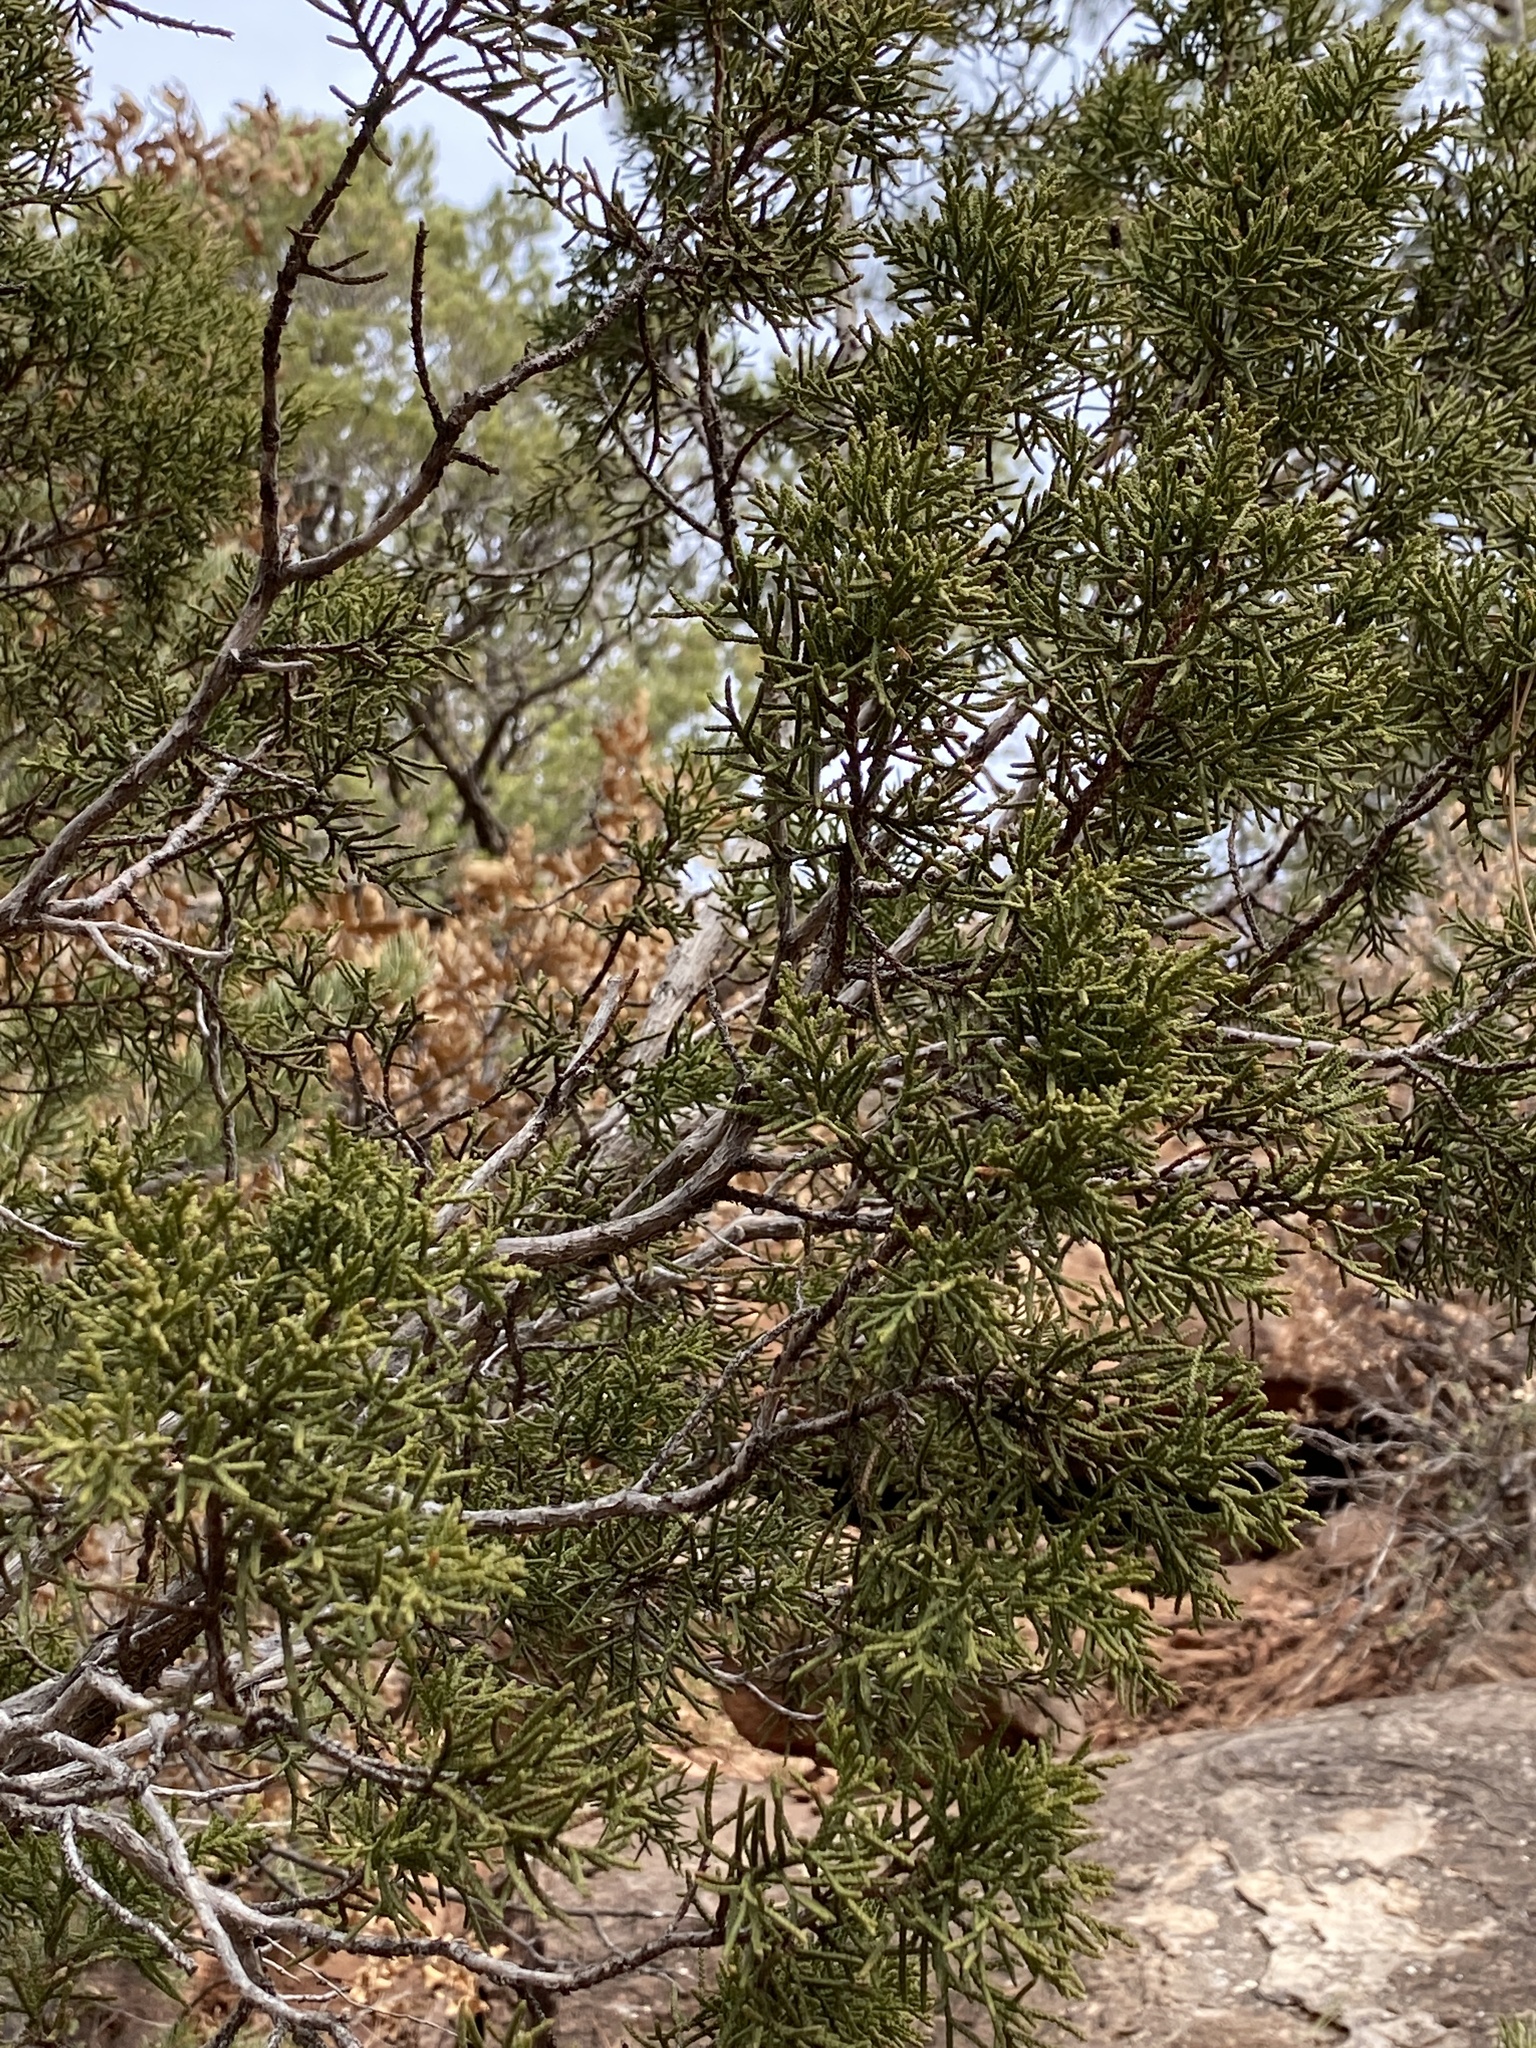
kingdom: Plantae
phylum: Tracheophyta
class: Pinopsida
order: Pinales
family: Cupressaceae
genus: Juniperus
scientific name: Juniperus deppeana
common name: Alligator juniper
